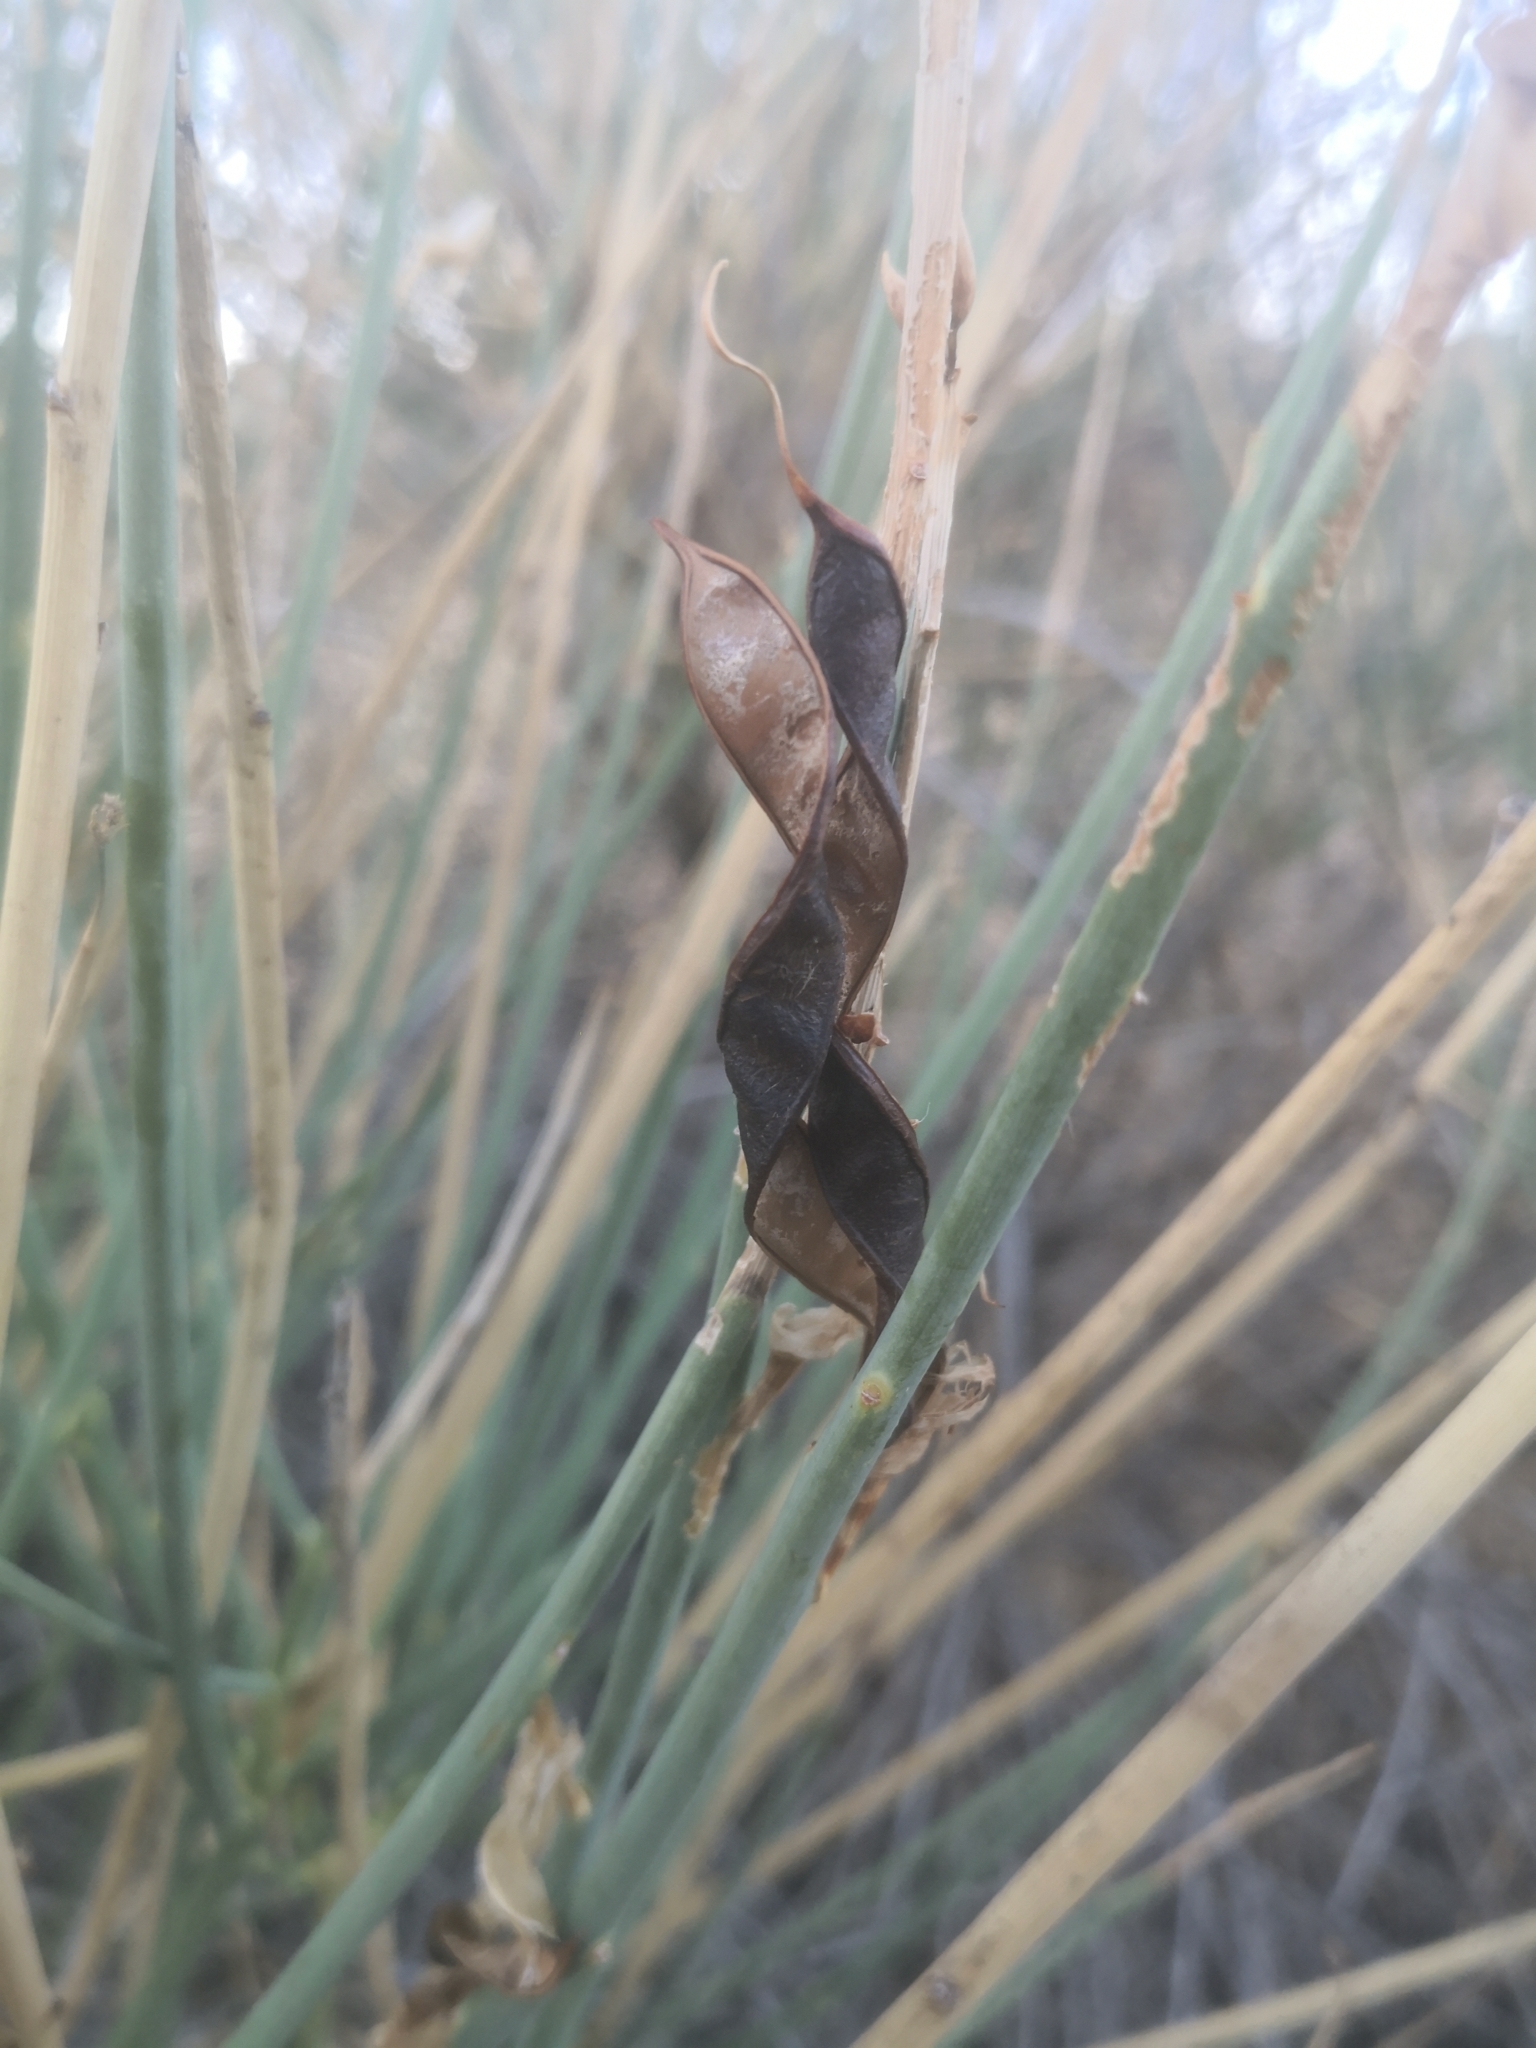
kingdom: Plantae
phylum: Tracheophyta
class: Magnoliopsida
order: Fabales
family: Fabaceae
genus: Spartium
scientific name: Spartium junceum
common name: Spanish broom
